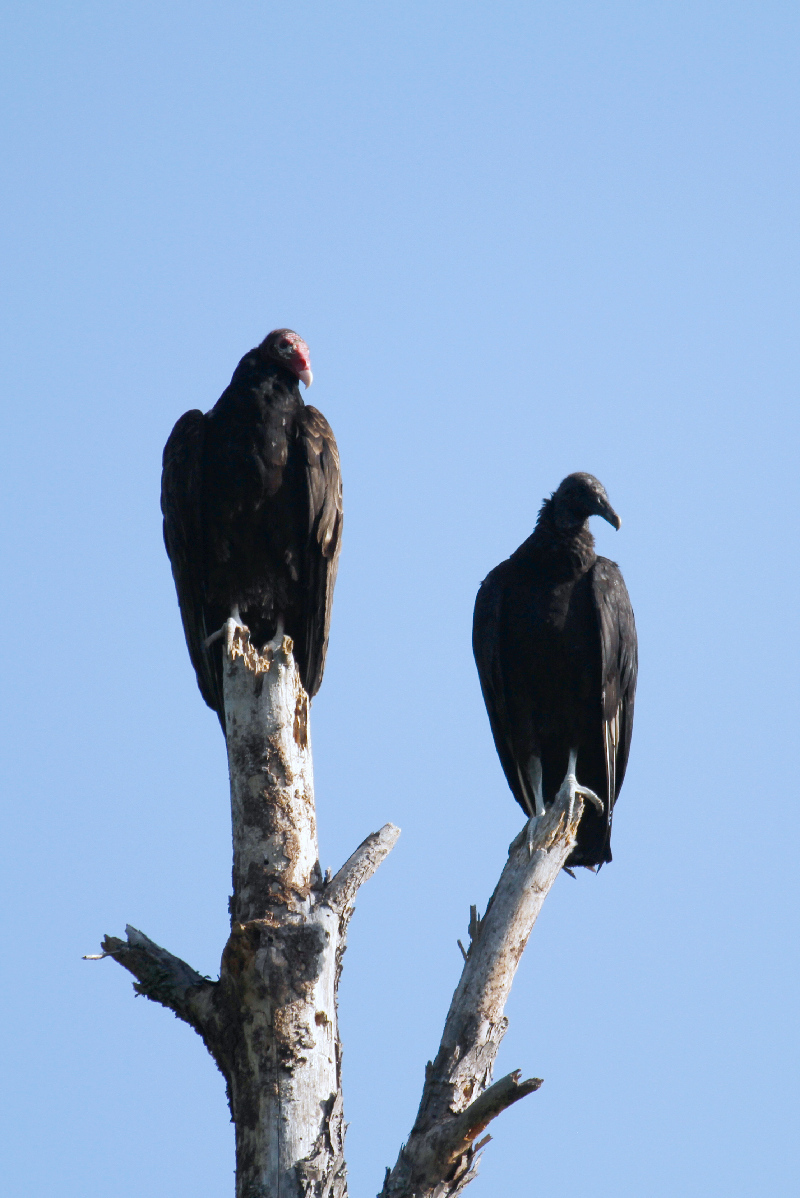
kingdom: Animalia
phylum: Chordata
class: Aves
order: Accipitriformes
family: Cathartidae
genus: Coragyps
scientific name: Coragyps atratus
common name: Black vulture
